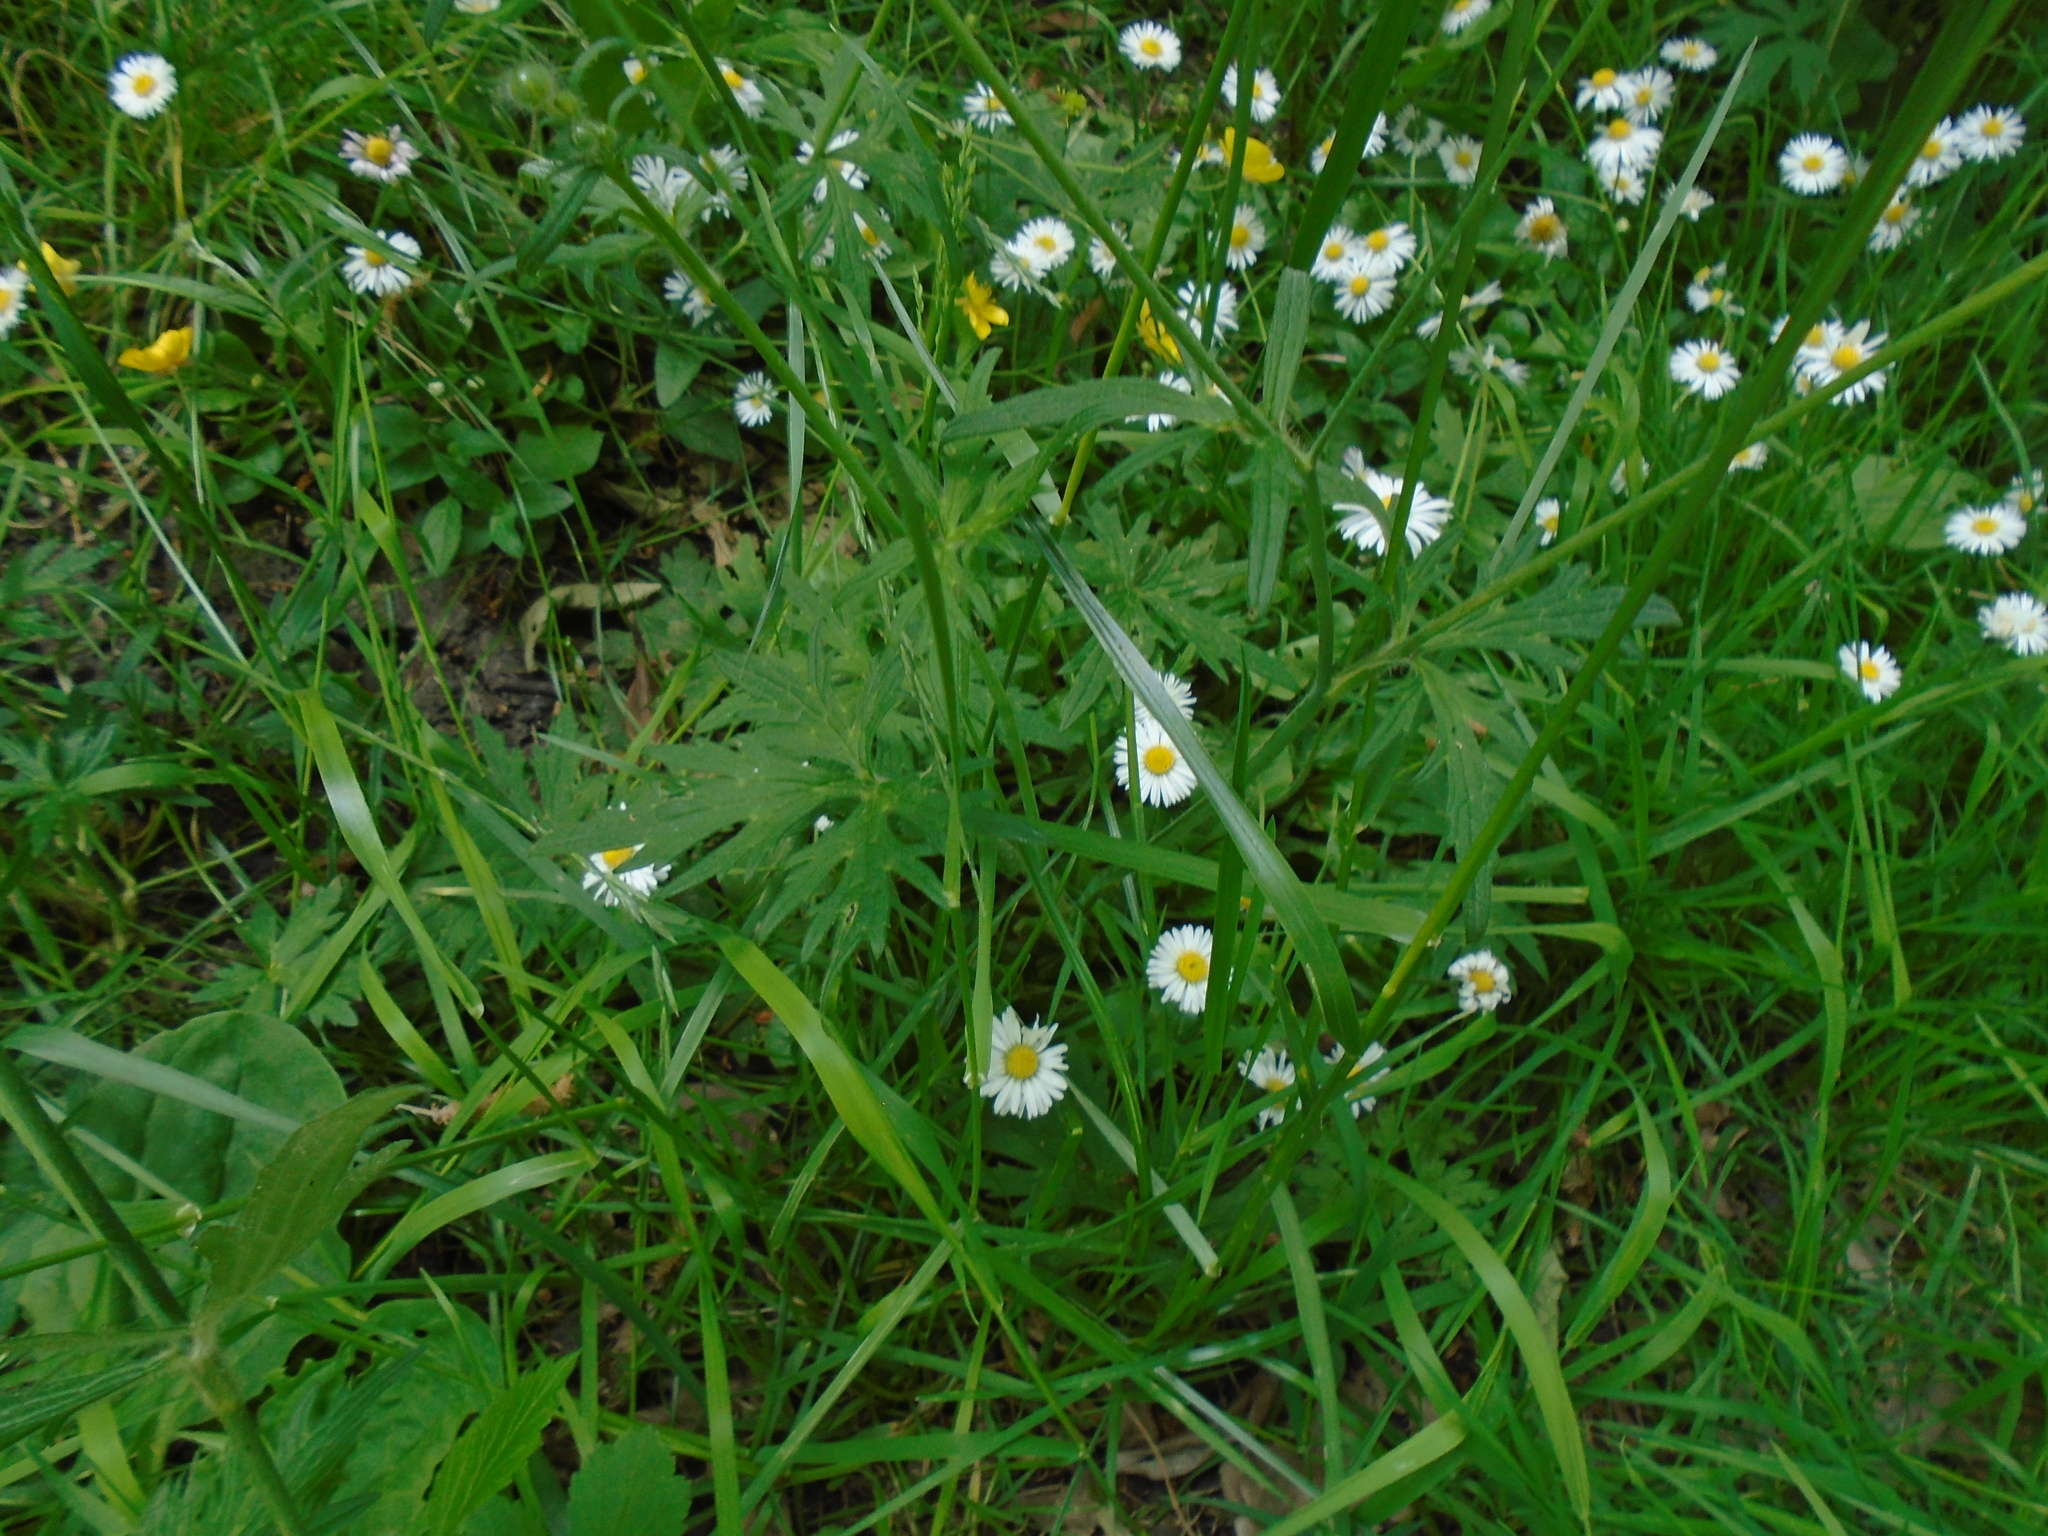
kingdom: Plantae
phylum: Tracheophyta
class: Magnoliopsida
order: Ranunculales
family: Ranunculaceae
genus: Ranunculus
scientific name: Ranunculus acris
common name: Meadow buttercup
